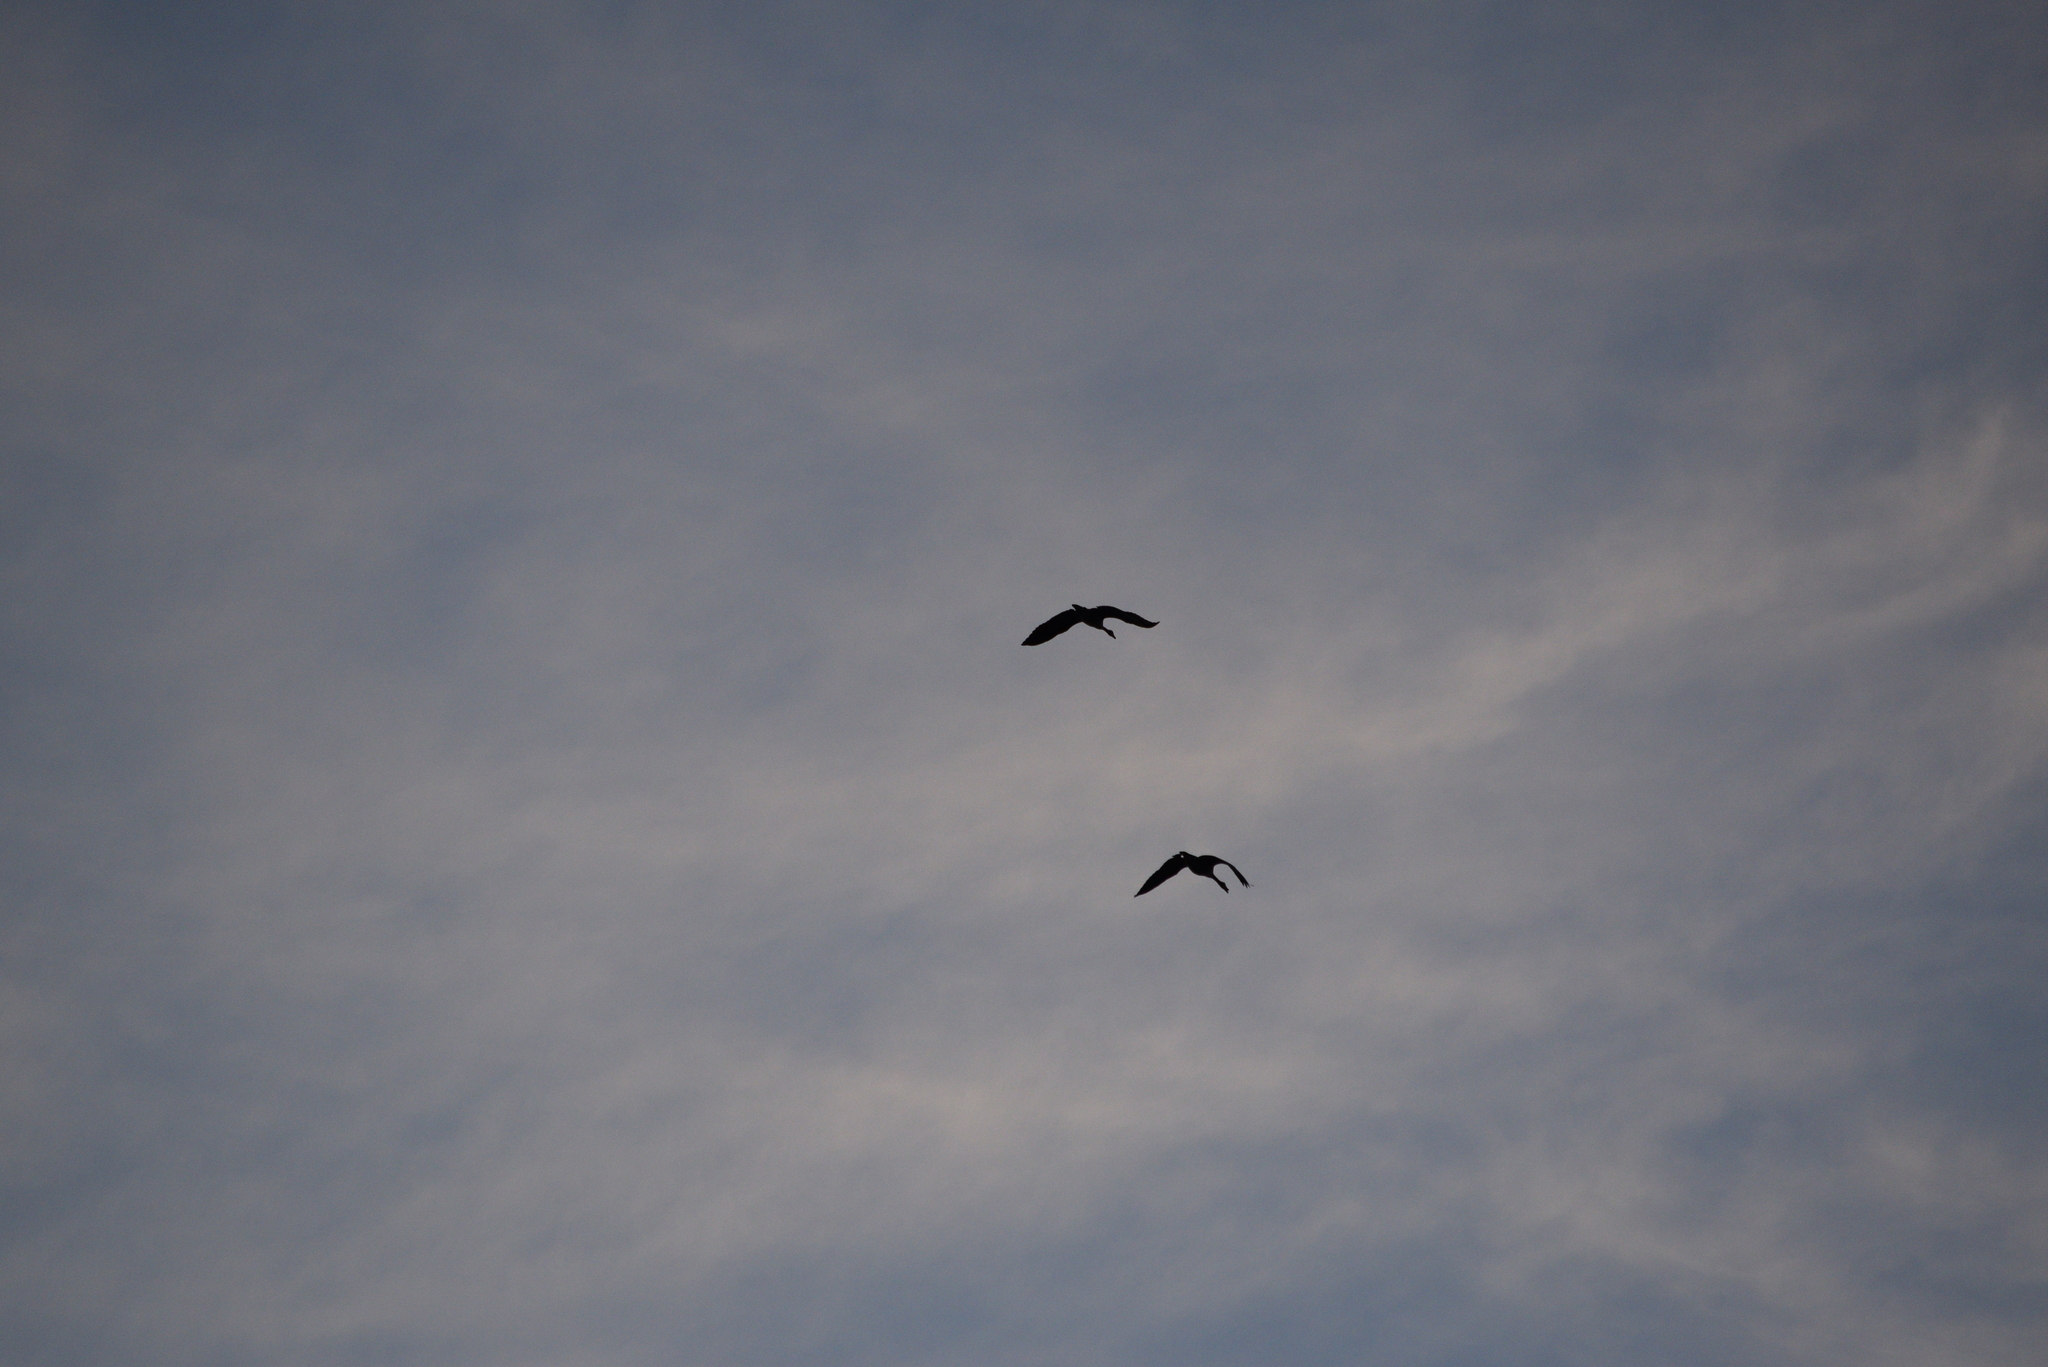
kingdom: Animalia
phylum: Chordata
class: Aves
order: Anseriformes
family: Anatidae
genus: Branta
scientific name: Branta canadensis
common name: Canada goose
